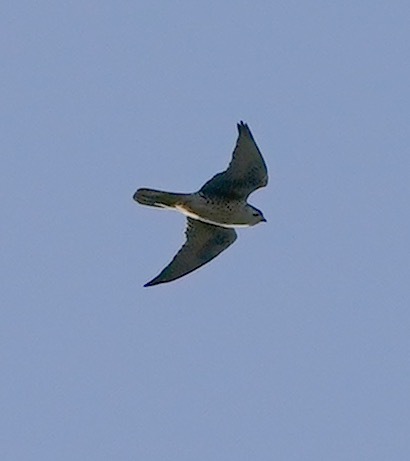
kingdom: Animalia
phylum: Chordata
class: Aves
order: Falconiformes
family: Falconidae
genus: Falco
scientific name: Falco mexicanus
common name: Prairie falcon
